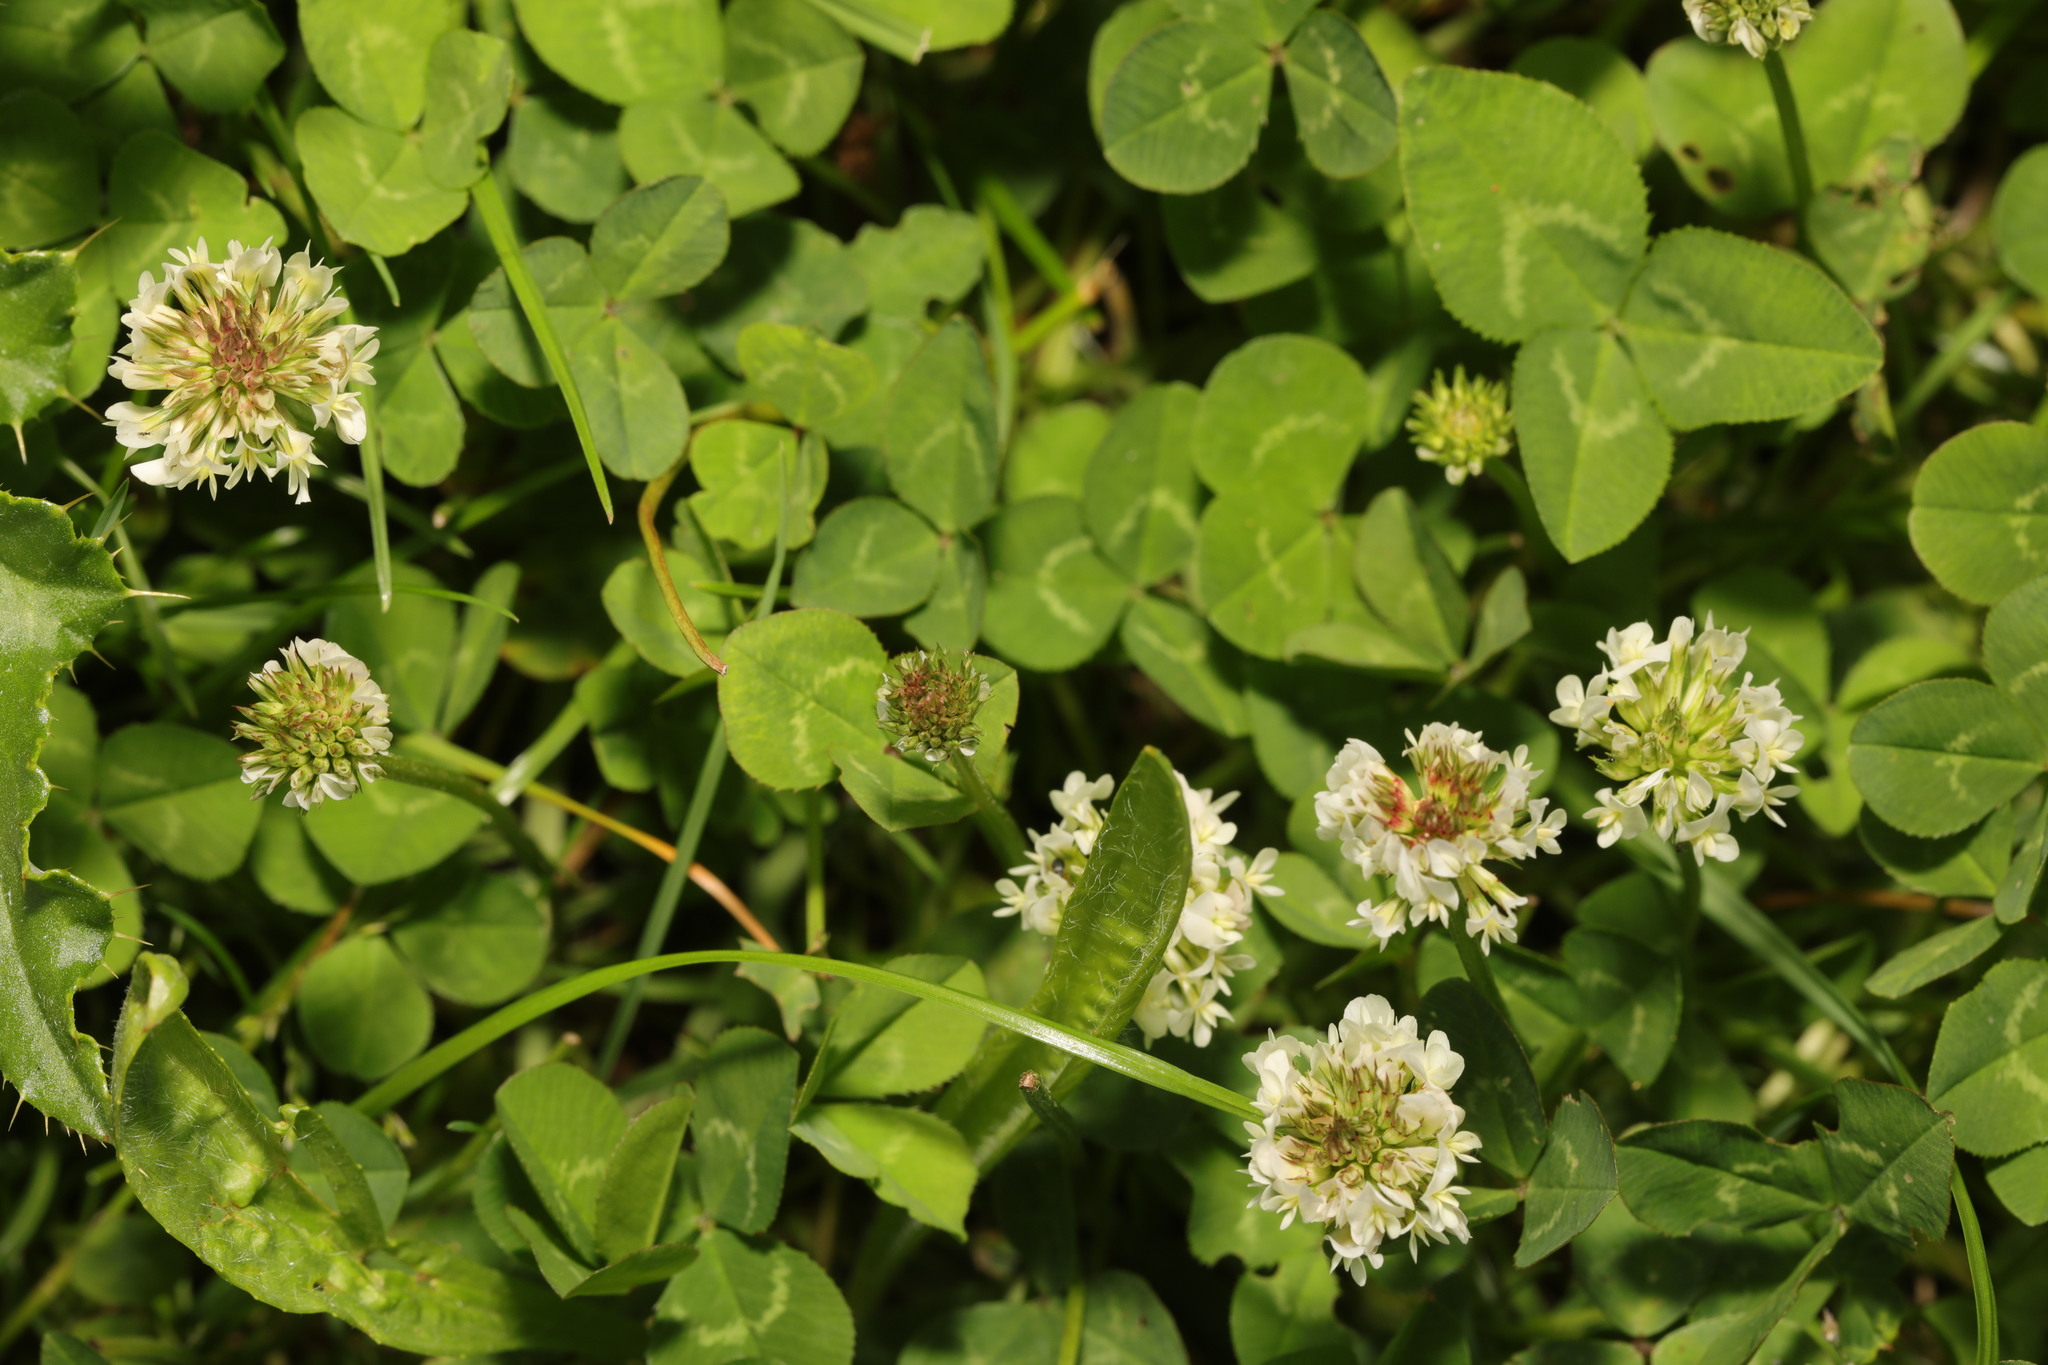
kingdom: Plantae
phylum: Tracheophyta
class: Magnoliopsida
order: Fabales
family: Fabaceae
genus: Trifolium
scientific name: Trifolium repens
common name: White clover
